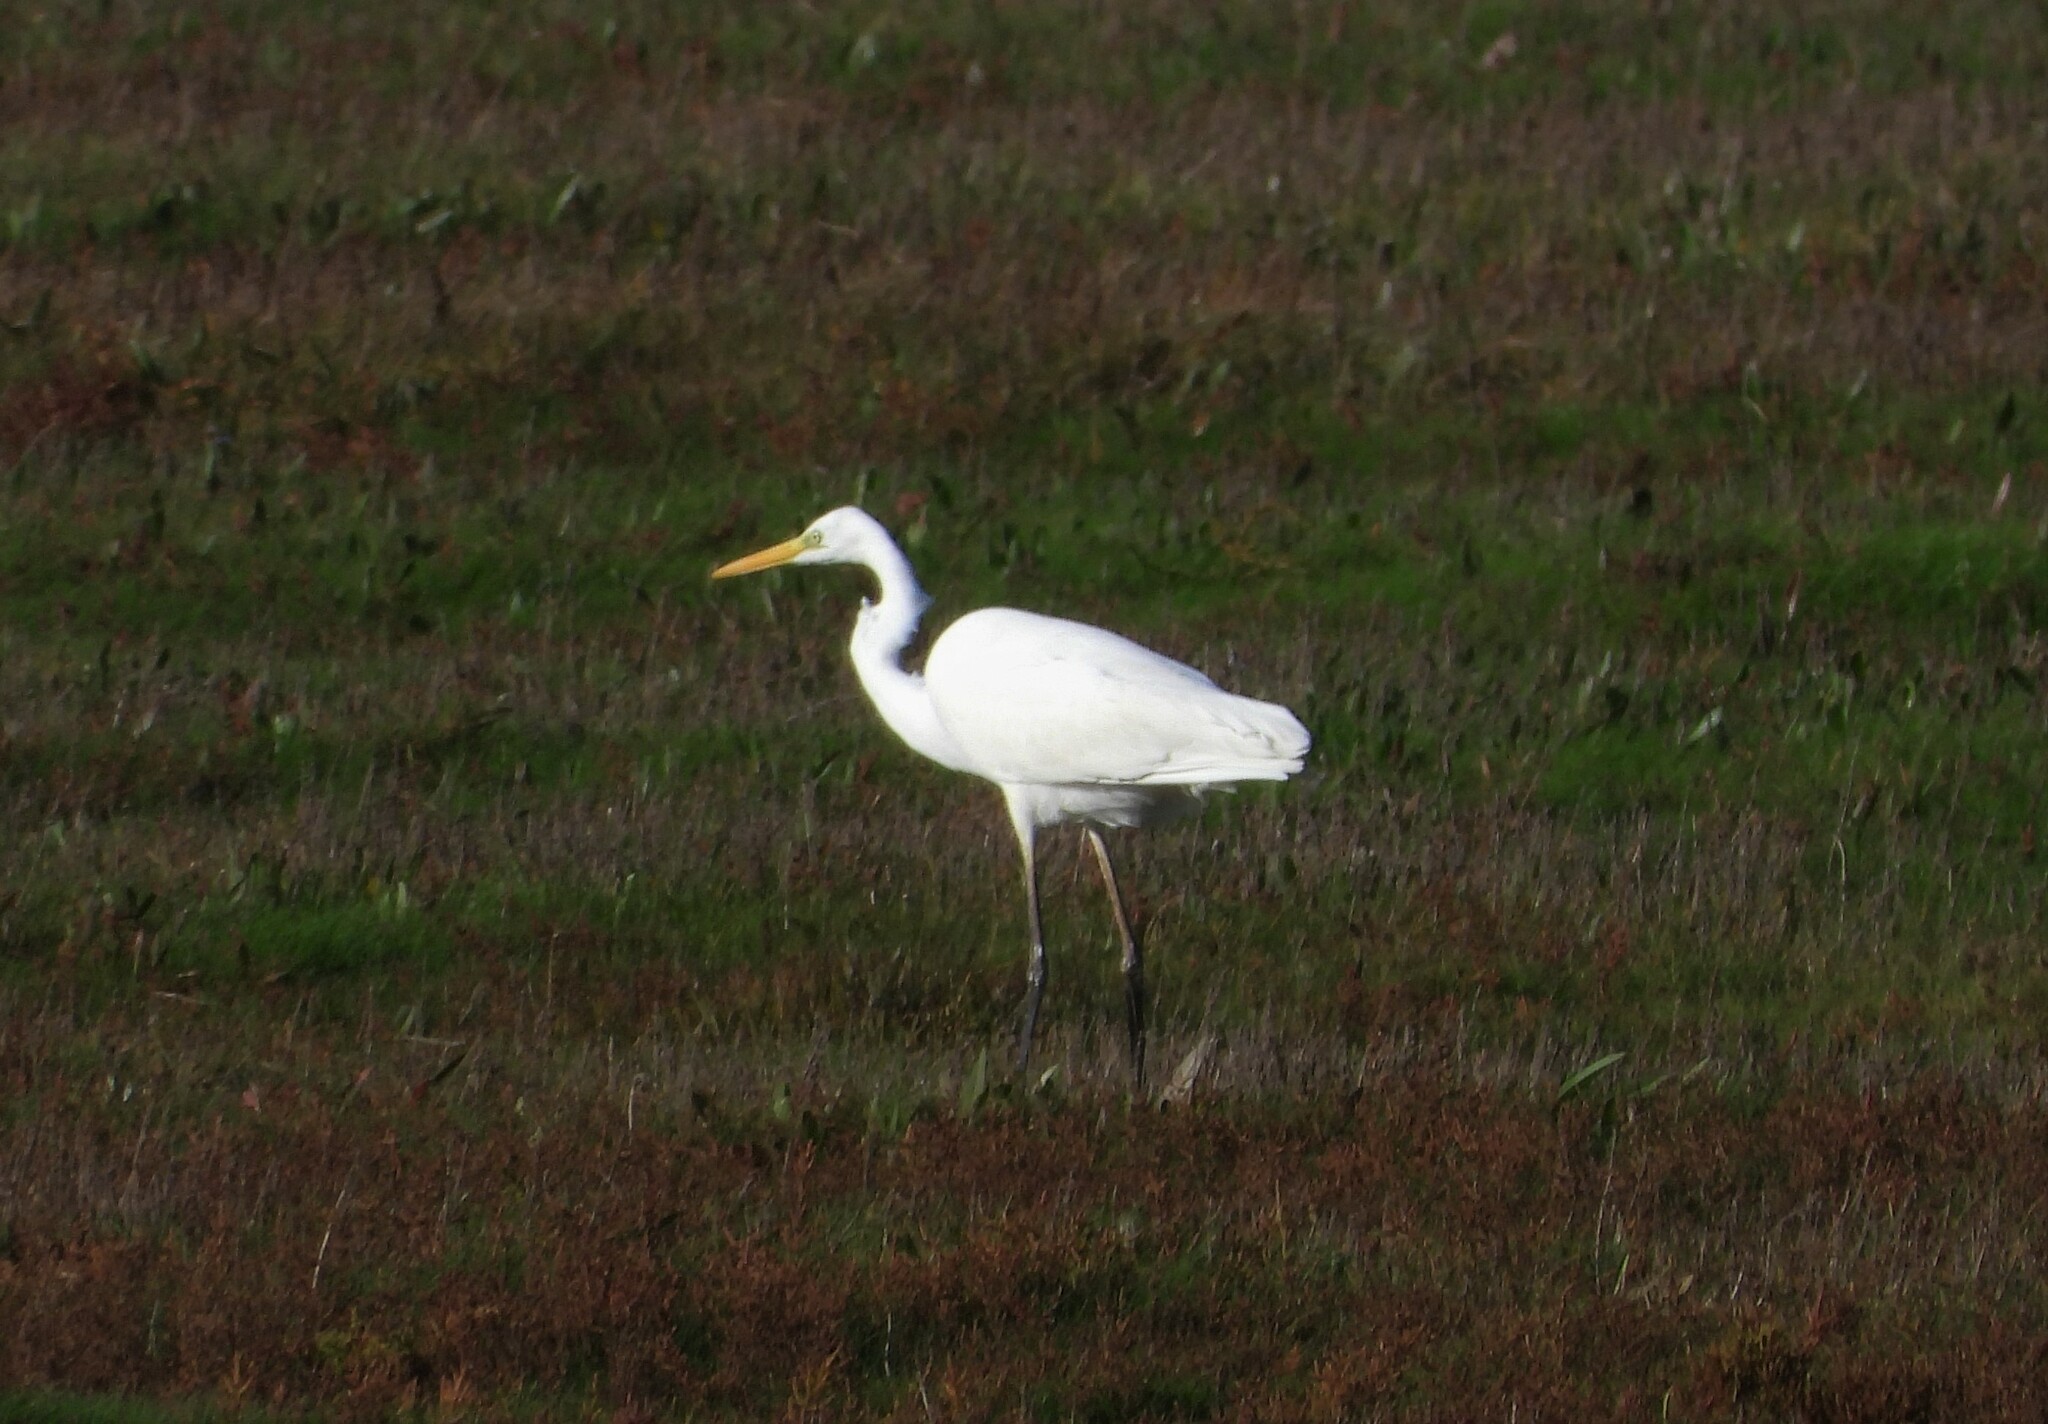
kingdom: Animalia
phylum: Chordata
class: Aves
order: Pelecaniformes
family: Ardeidae
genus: Ardea
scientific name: Ardea alba
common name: Great egret
